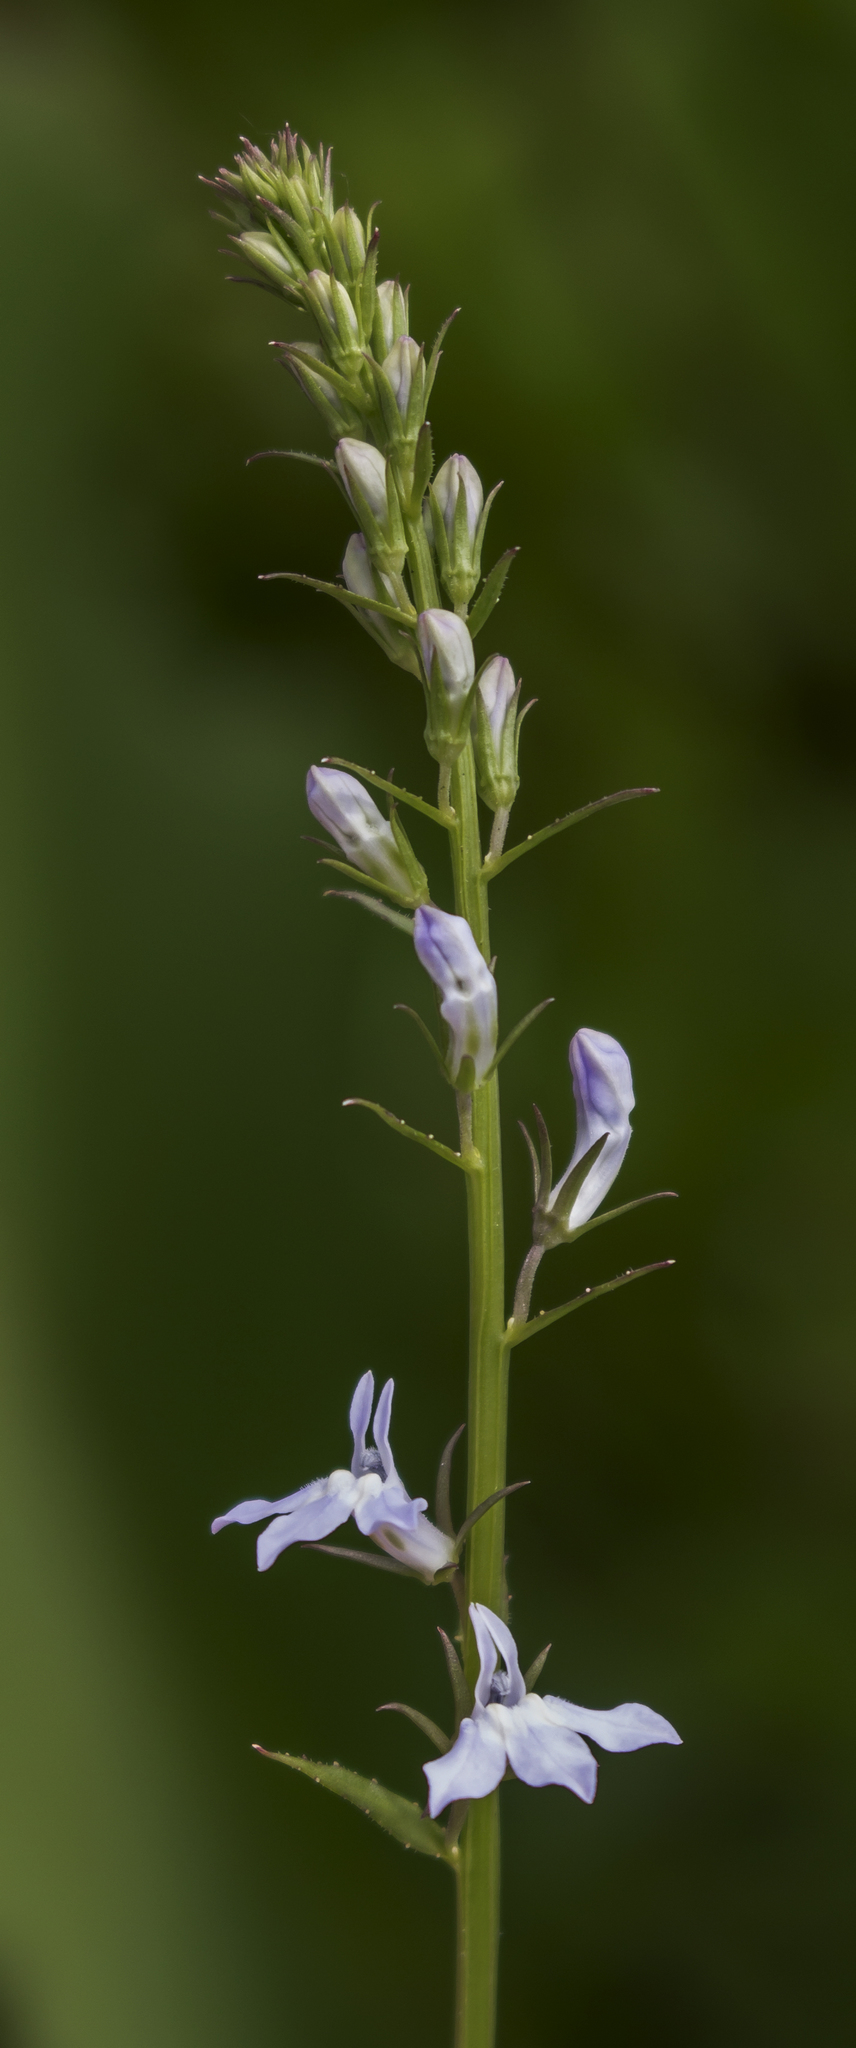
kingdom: Plantae
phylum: Tracheophyta
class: Magnoliopsida
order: Asterales
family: Campanulaceae
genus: Lobelia
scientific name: Lobelia spicata
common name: Pale-spike lobelia
